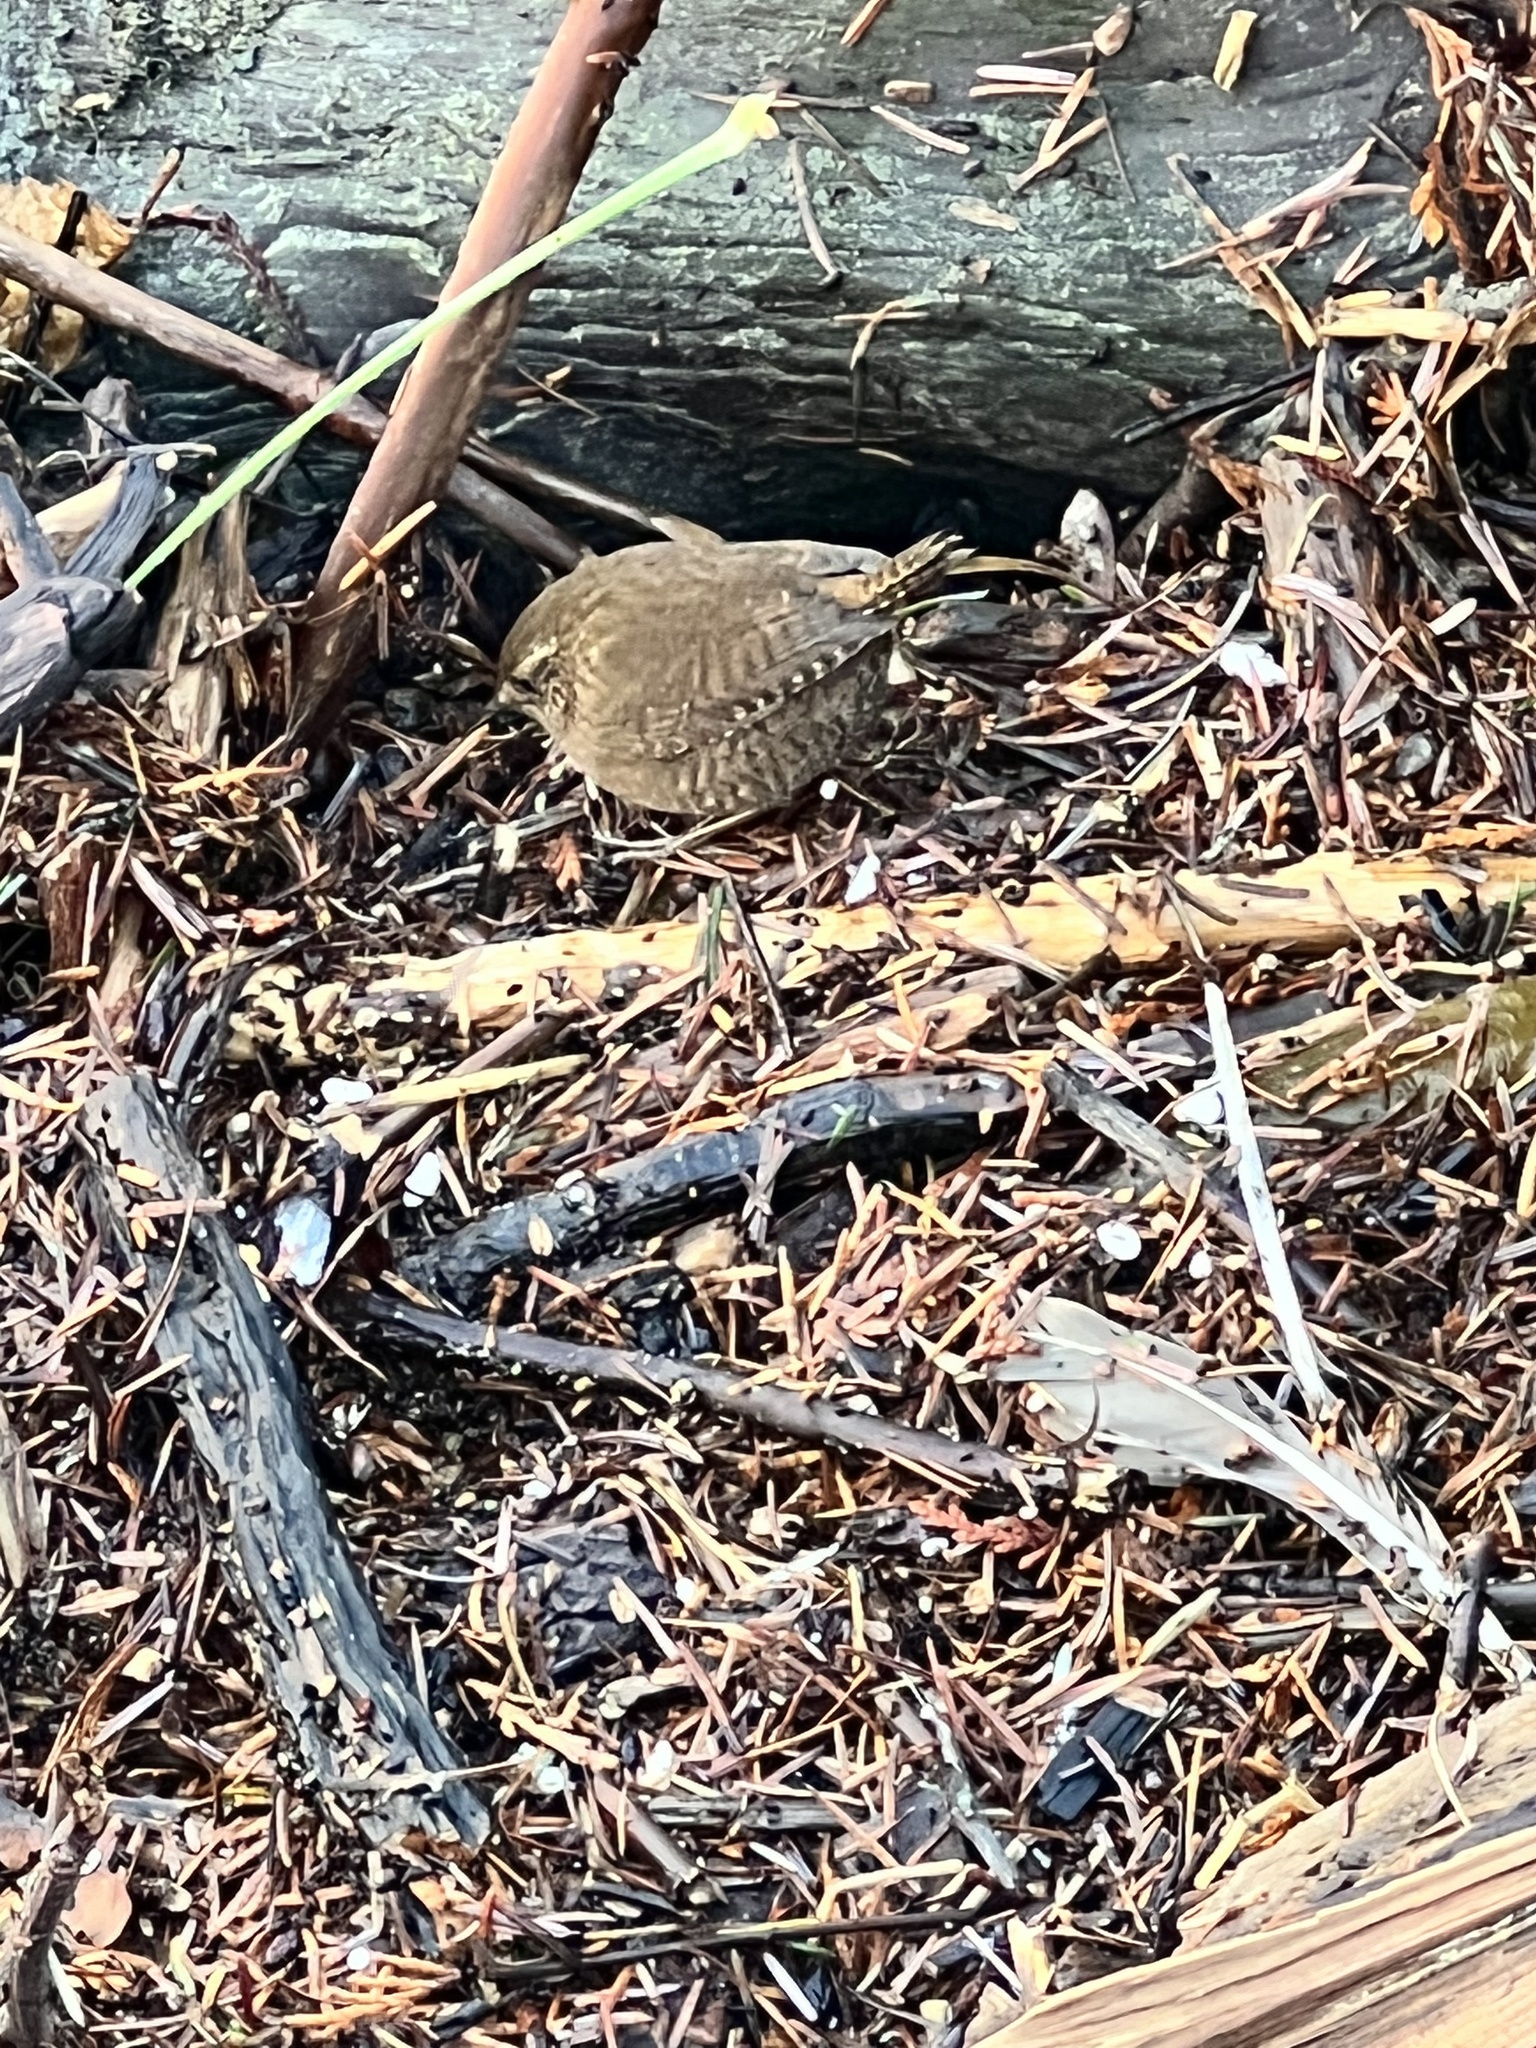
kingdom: Animalia
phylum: Chordata
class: Aves
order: Passeriformes
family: Troglodytidae
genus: Troglodytes
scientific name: Troglodytes pacificus
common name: Pacific wren
